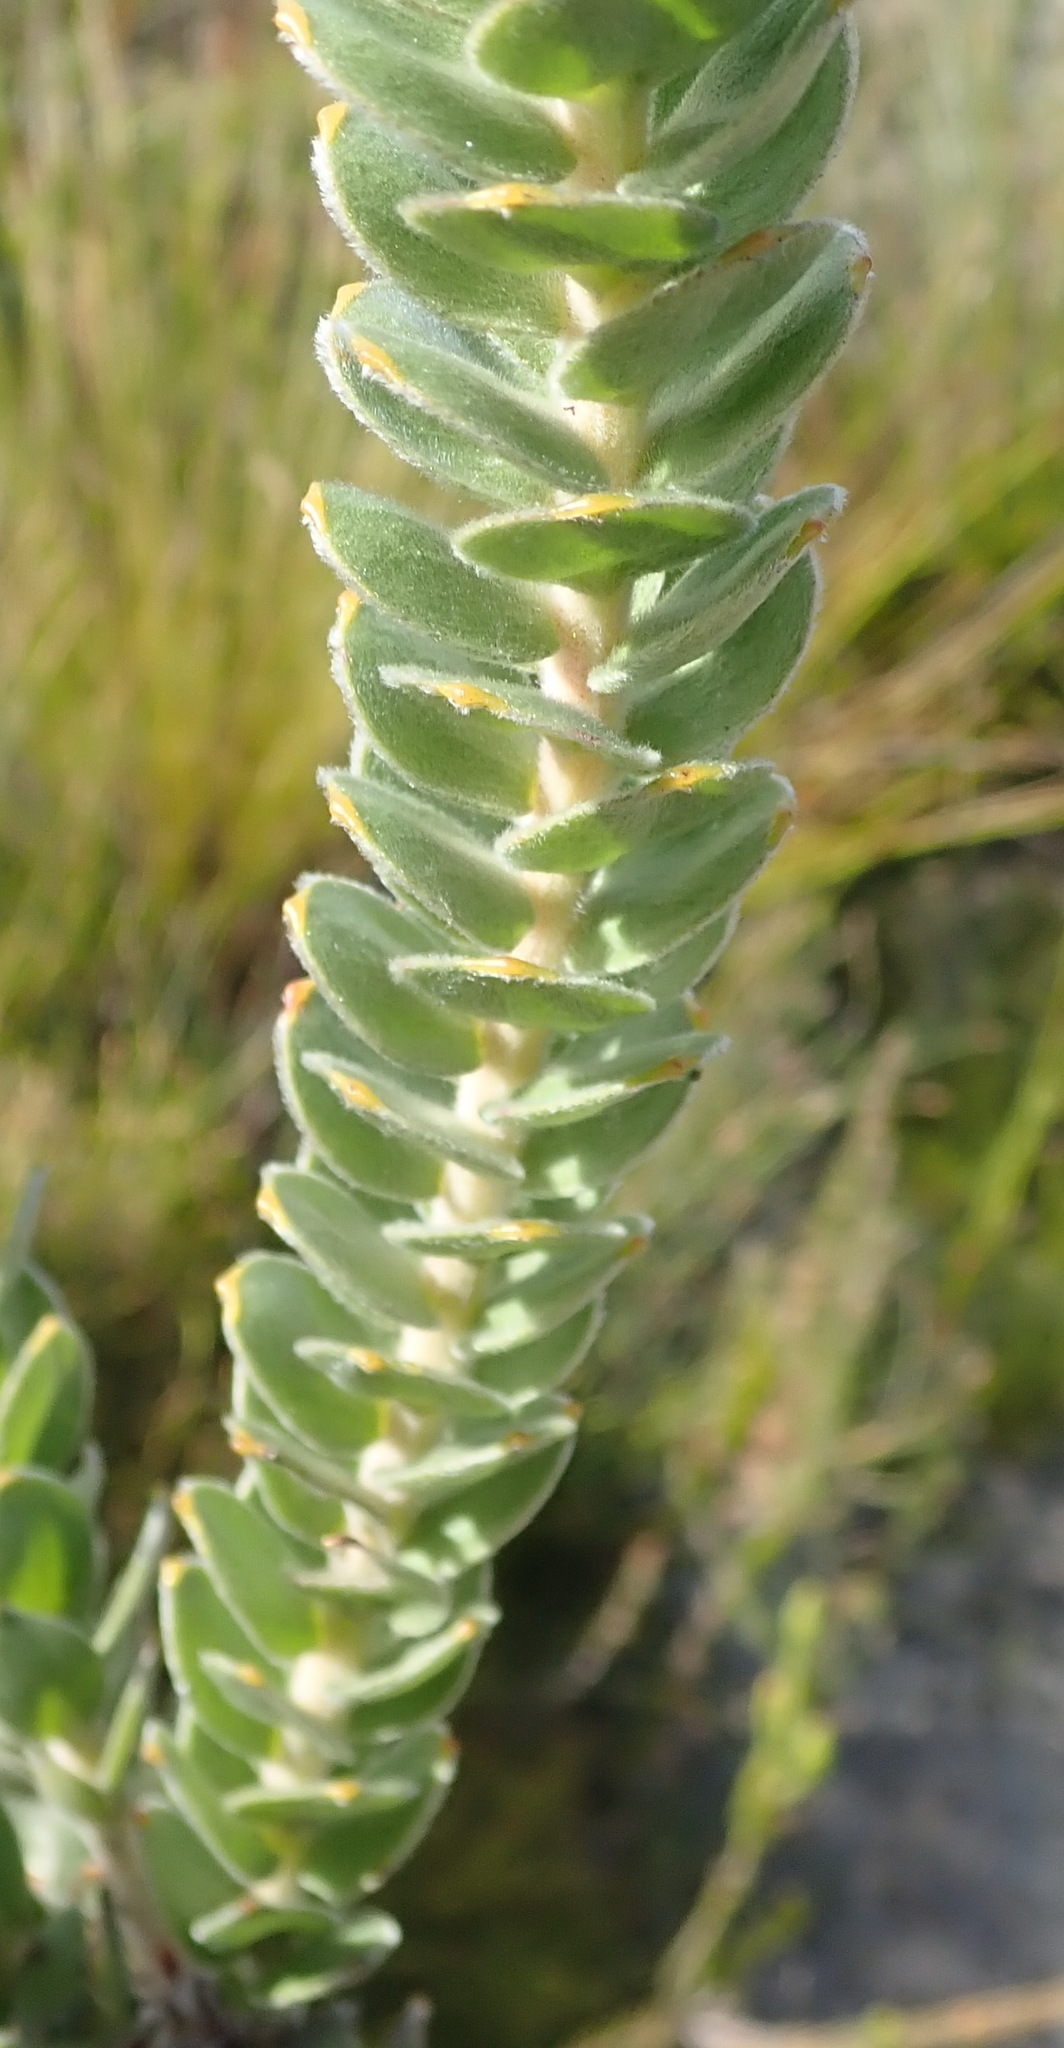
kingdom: Plantae
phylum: Tracheophyta
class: Magnoliopsida
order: Proteales
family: Proteaceae
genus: Leucospermum
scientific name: Leucospermum truncatulum
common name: Oval-leaf pincushion
